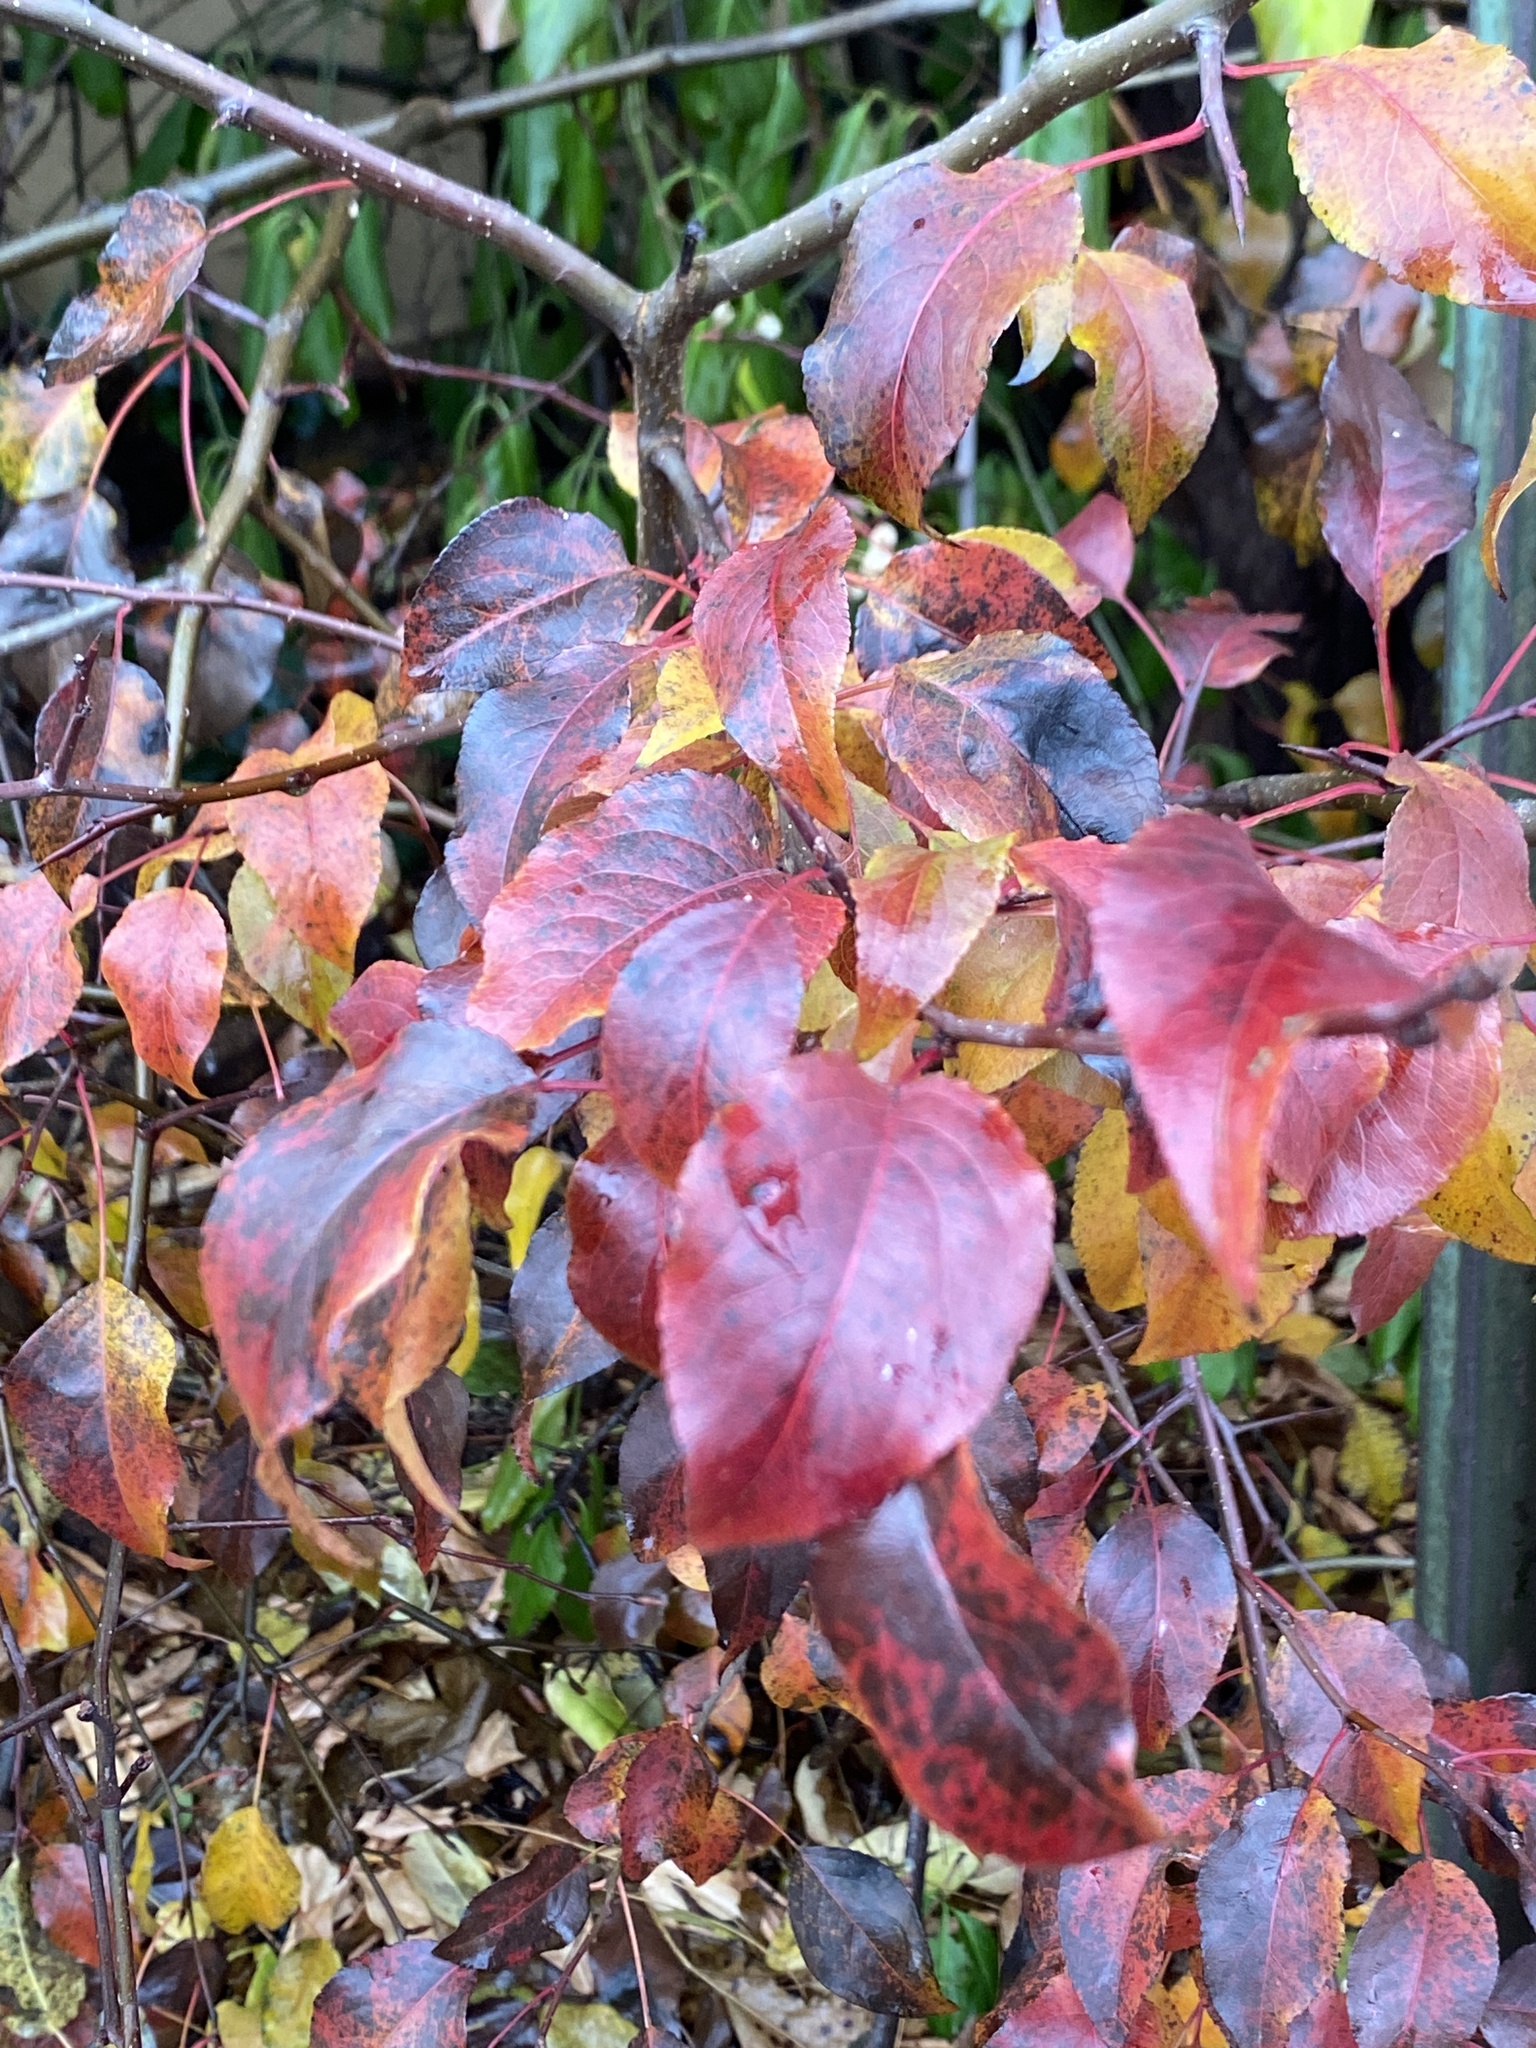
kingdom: Plantae
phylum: Tracheophyta
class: Magnoliopsida
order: Rosales
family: Rosaceae
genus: Pyrus
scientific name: Pyrus calleryana
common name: Callery pear
